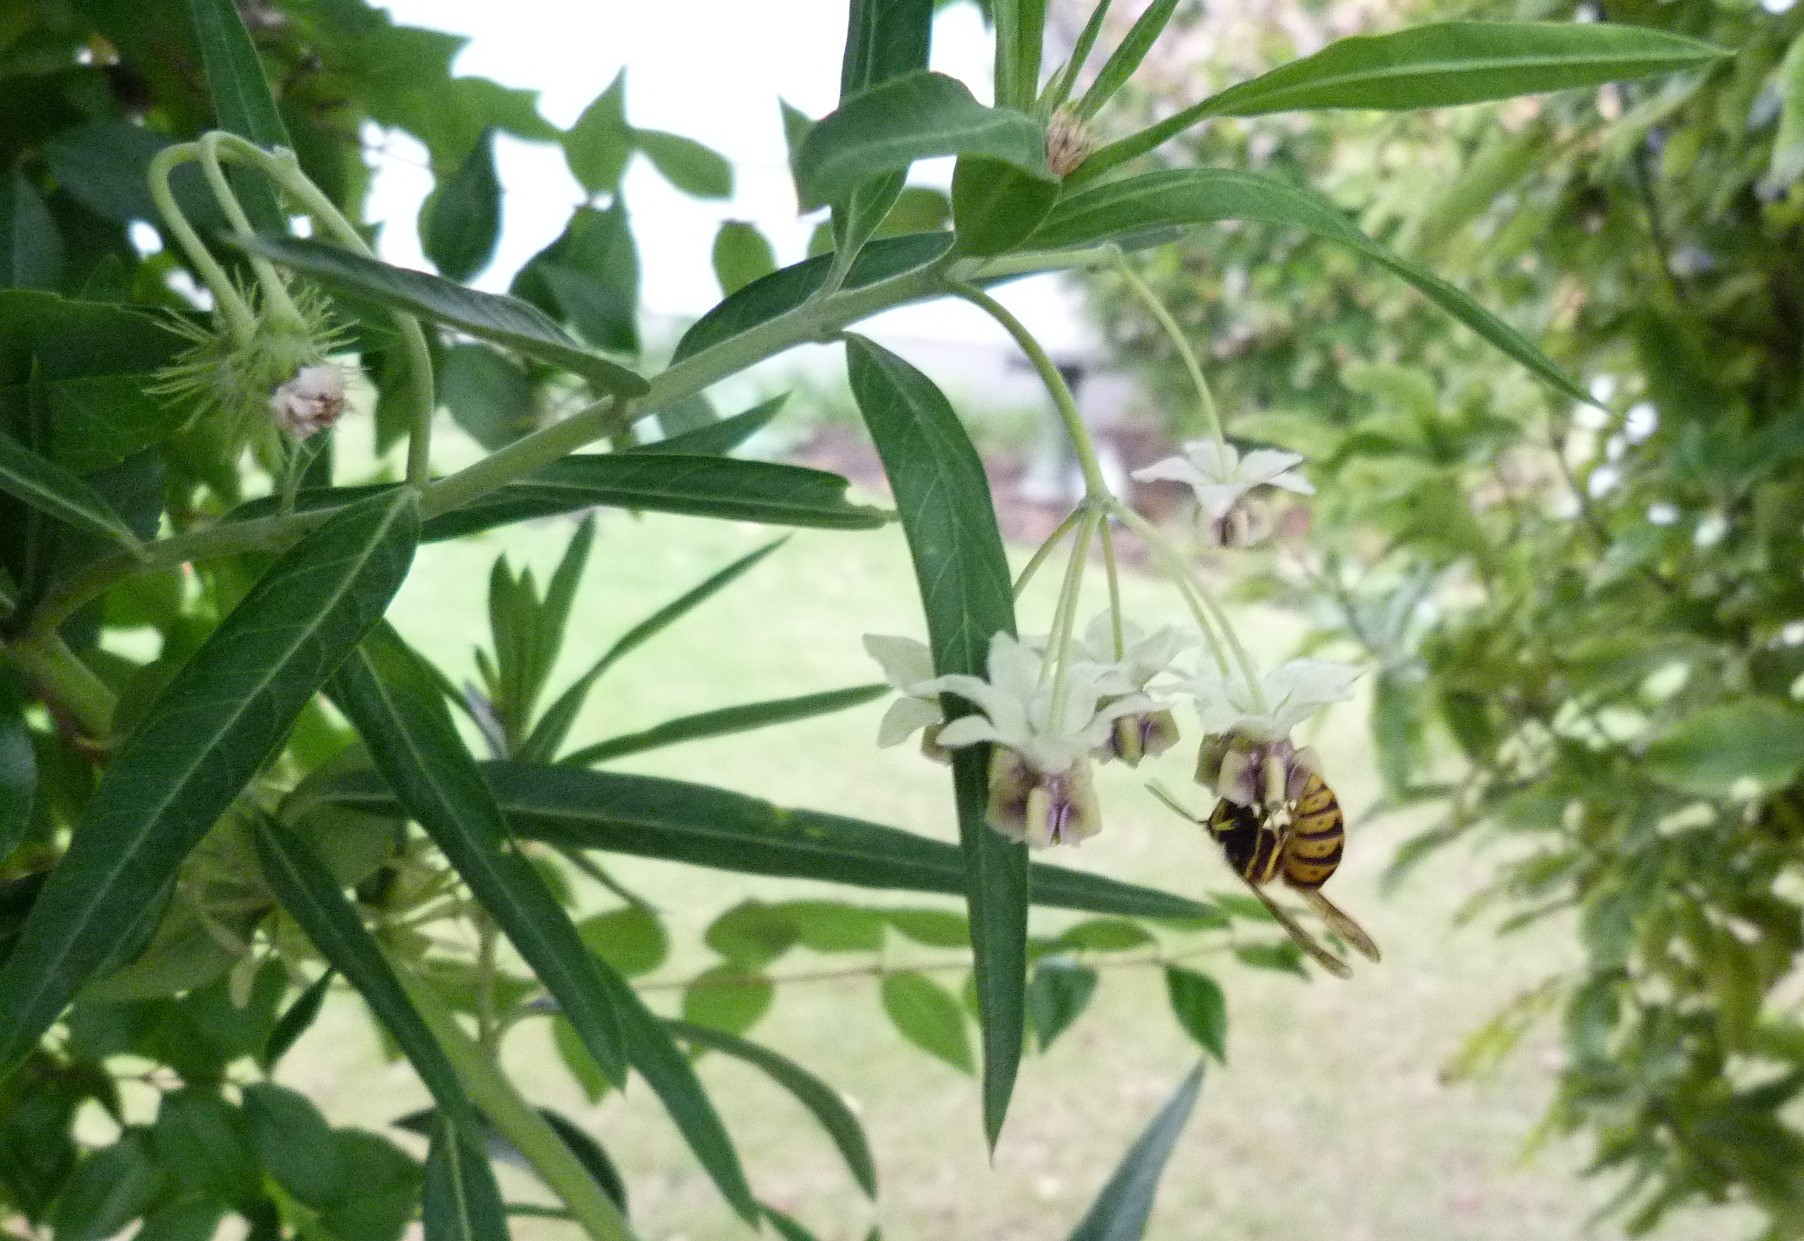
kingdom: Animalia
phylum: Arthropoda
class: Insecta
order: Hymenoptera
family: Vespidae
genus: Vespula
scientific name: Vespula germanica
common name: German wasp
